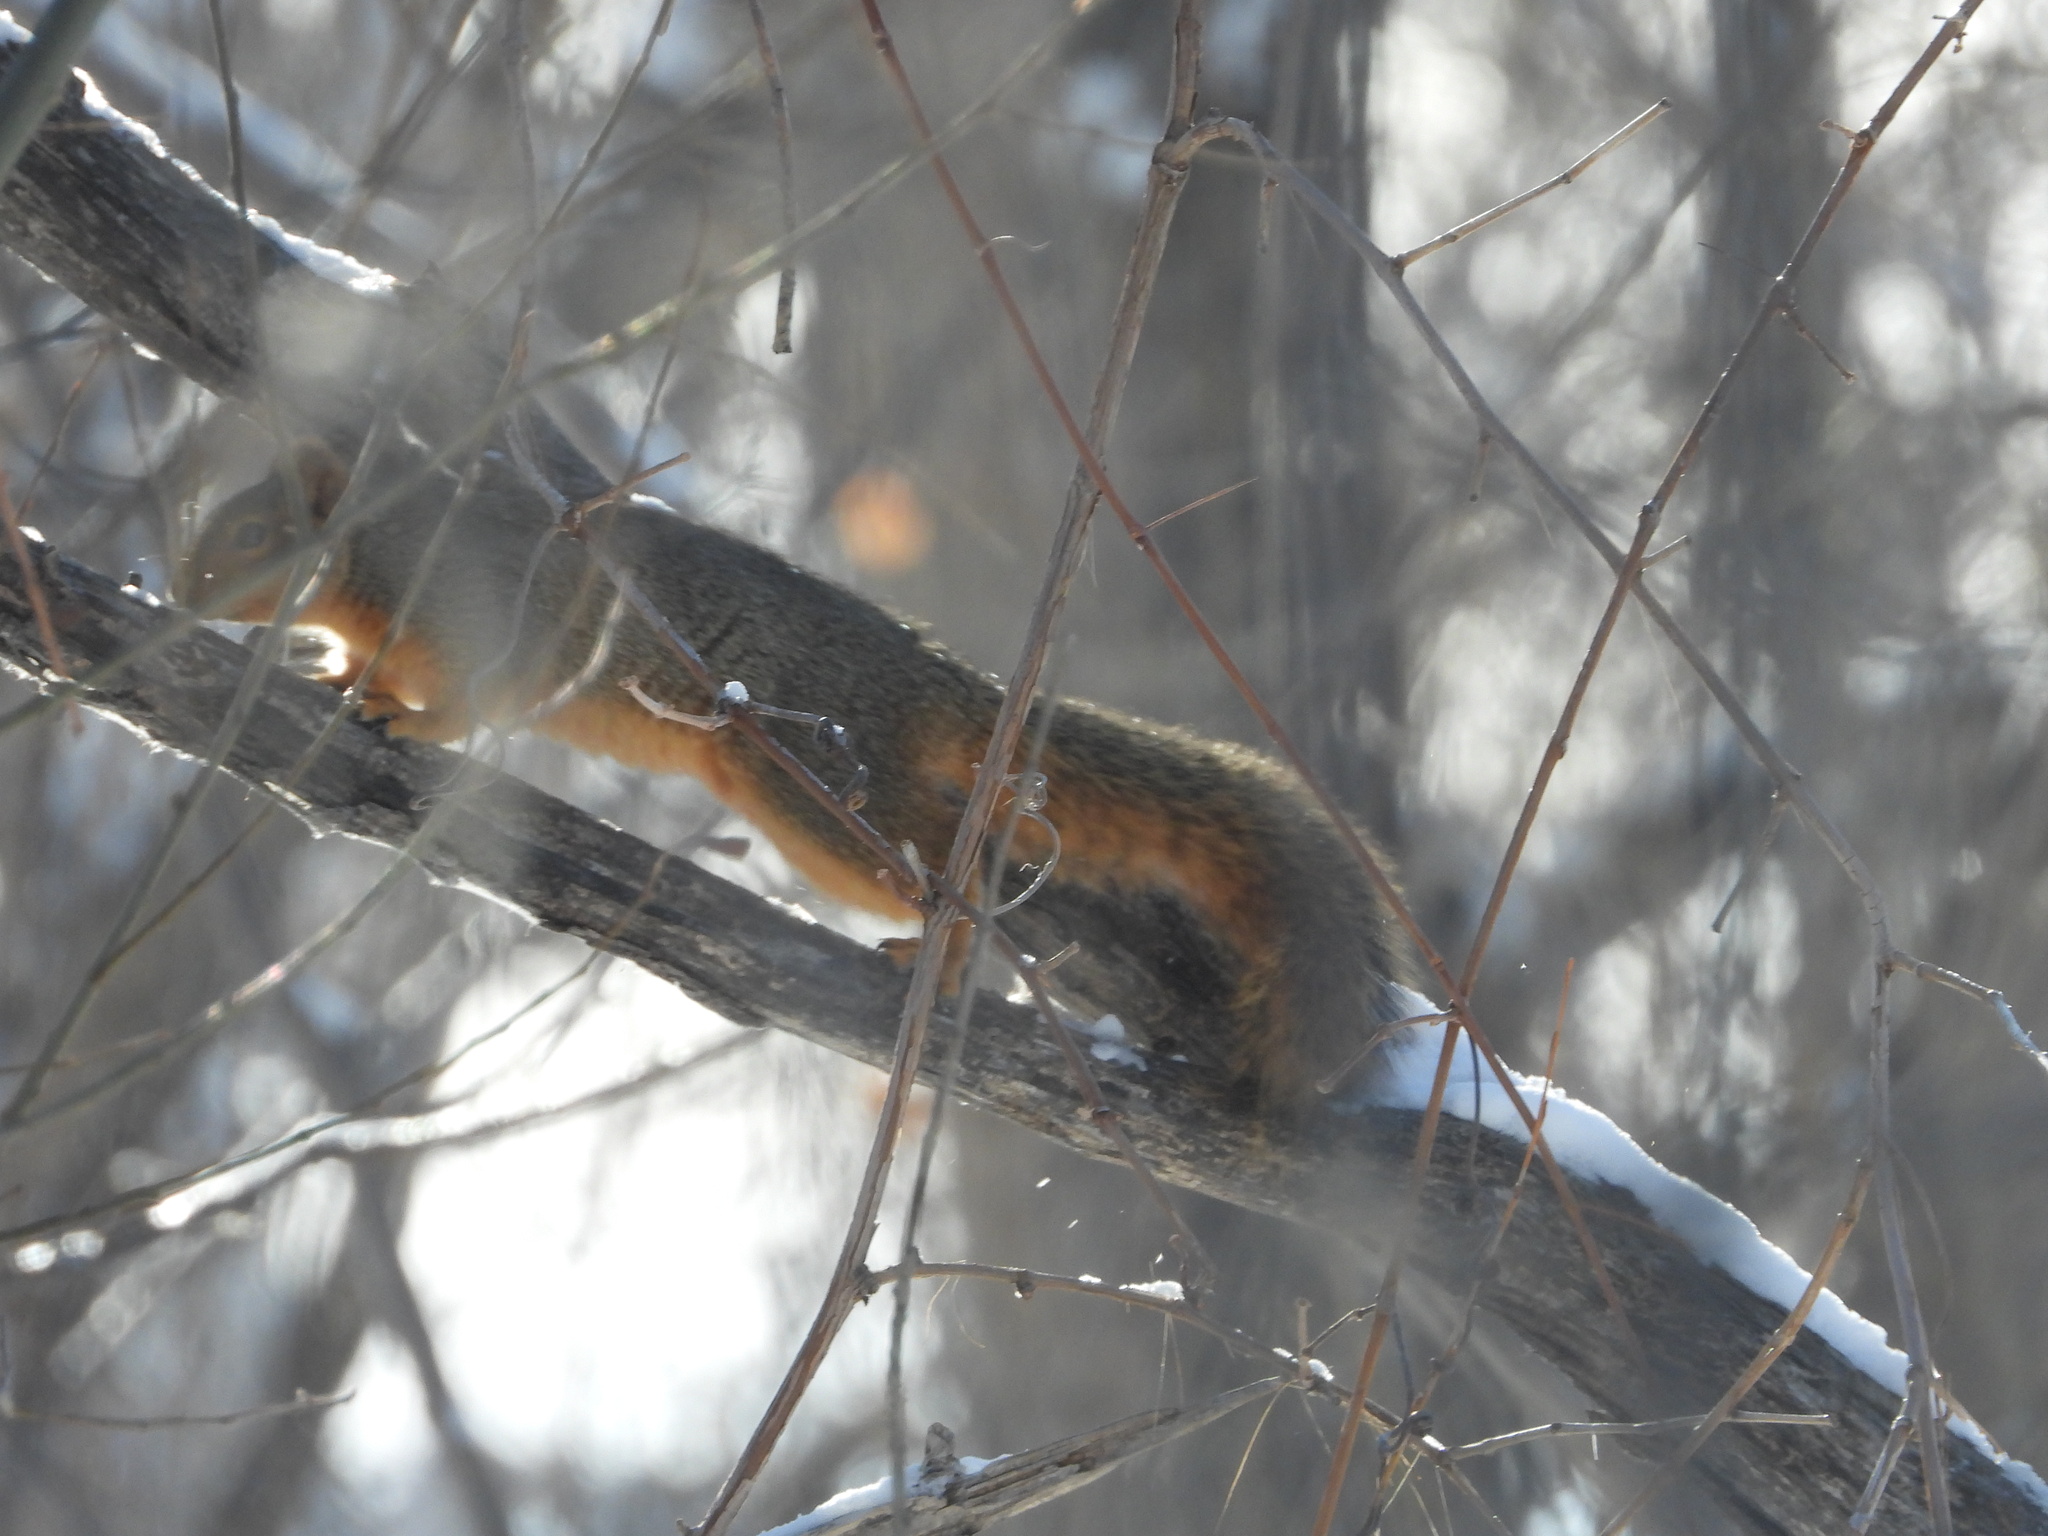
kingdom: Animalia
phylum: Chordata
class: Mammalia
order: Rodentia
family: Sciuridae
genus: Sciurus
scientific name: Sciurus niger
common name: Fox squirrel
